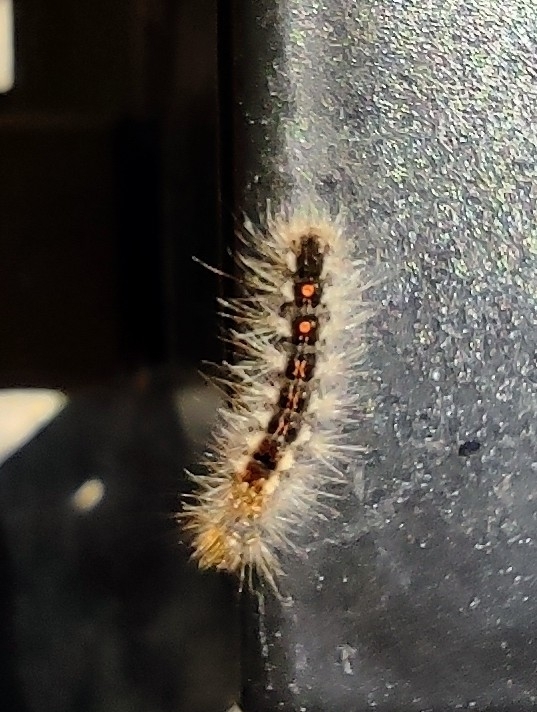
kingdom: Animalia
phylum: Arthropoda
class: Insecta
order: Lepidoptera
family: Erebidae
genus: Euproctis
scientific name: Euproctis chrysorrhoea
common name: Brown-tail
